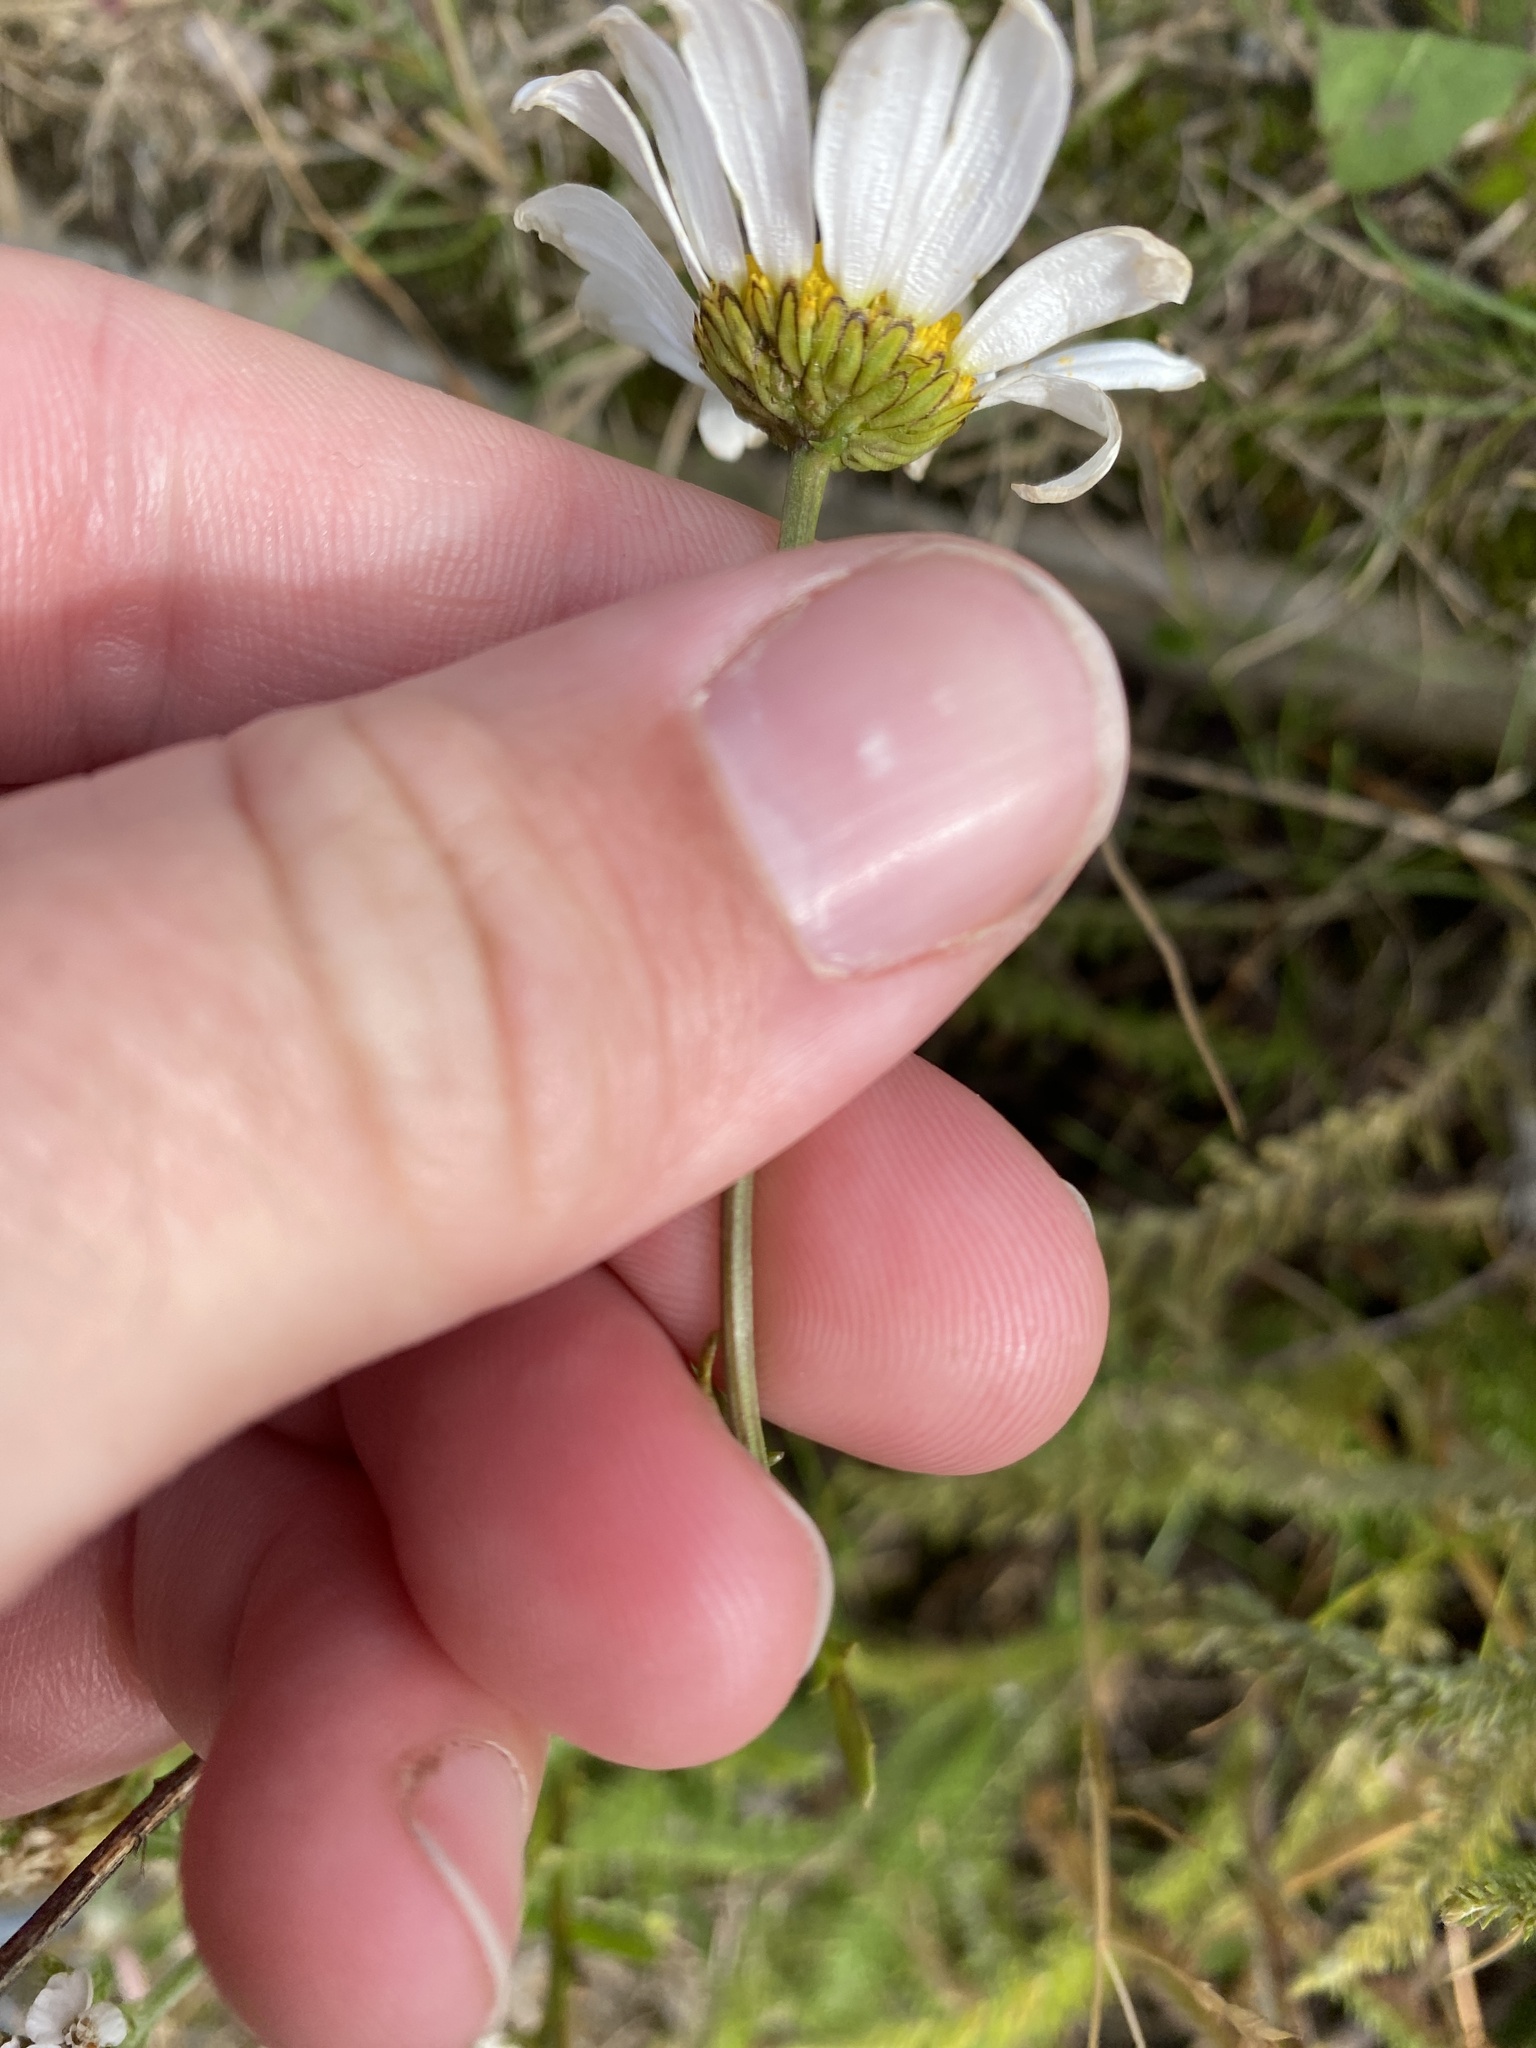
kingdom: Plantae
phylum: Tracheophyta
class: Magnoliopsida
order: Asterales
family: Asteraceae
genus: Leucanthemum
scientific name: Leucanthemum vulgare
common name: Oxeye daisy
